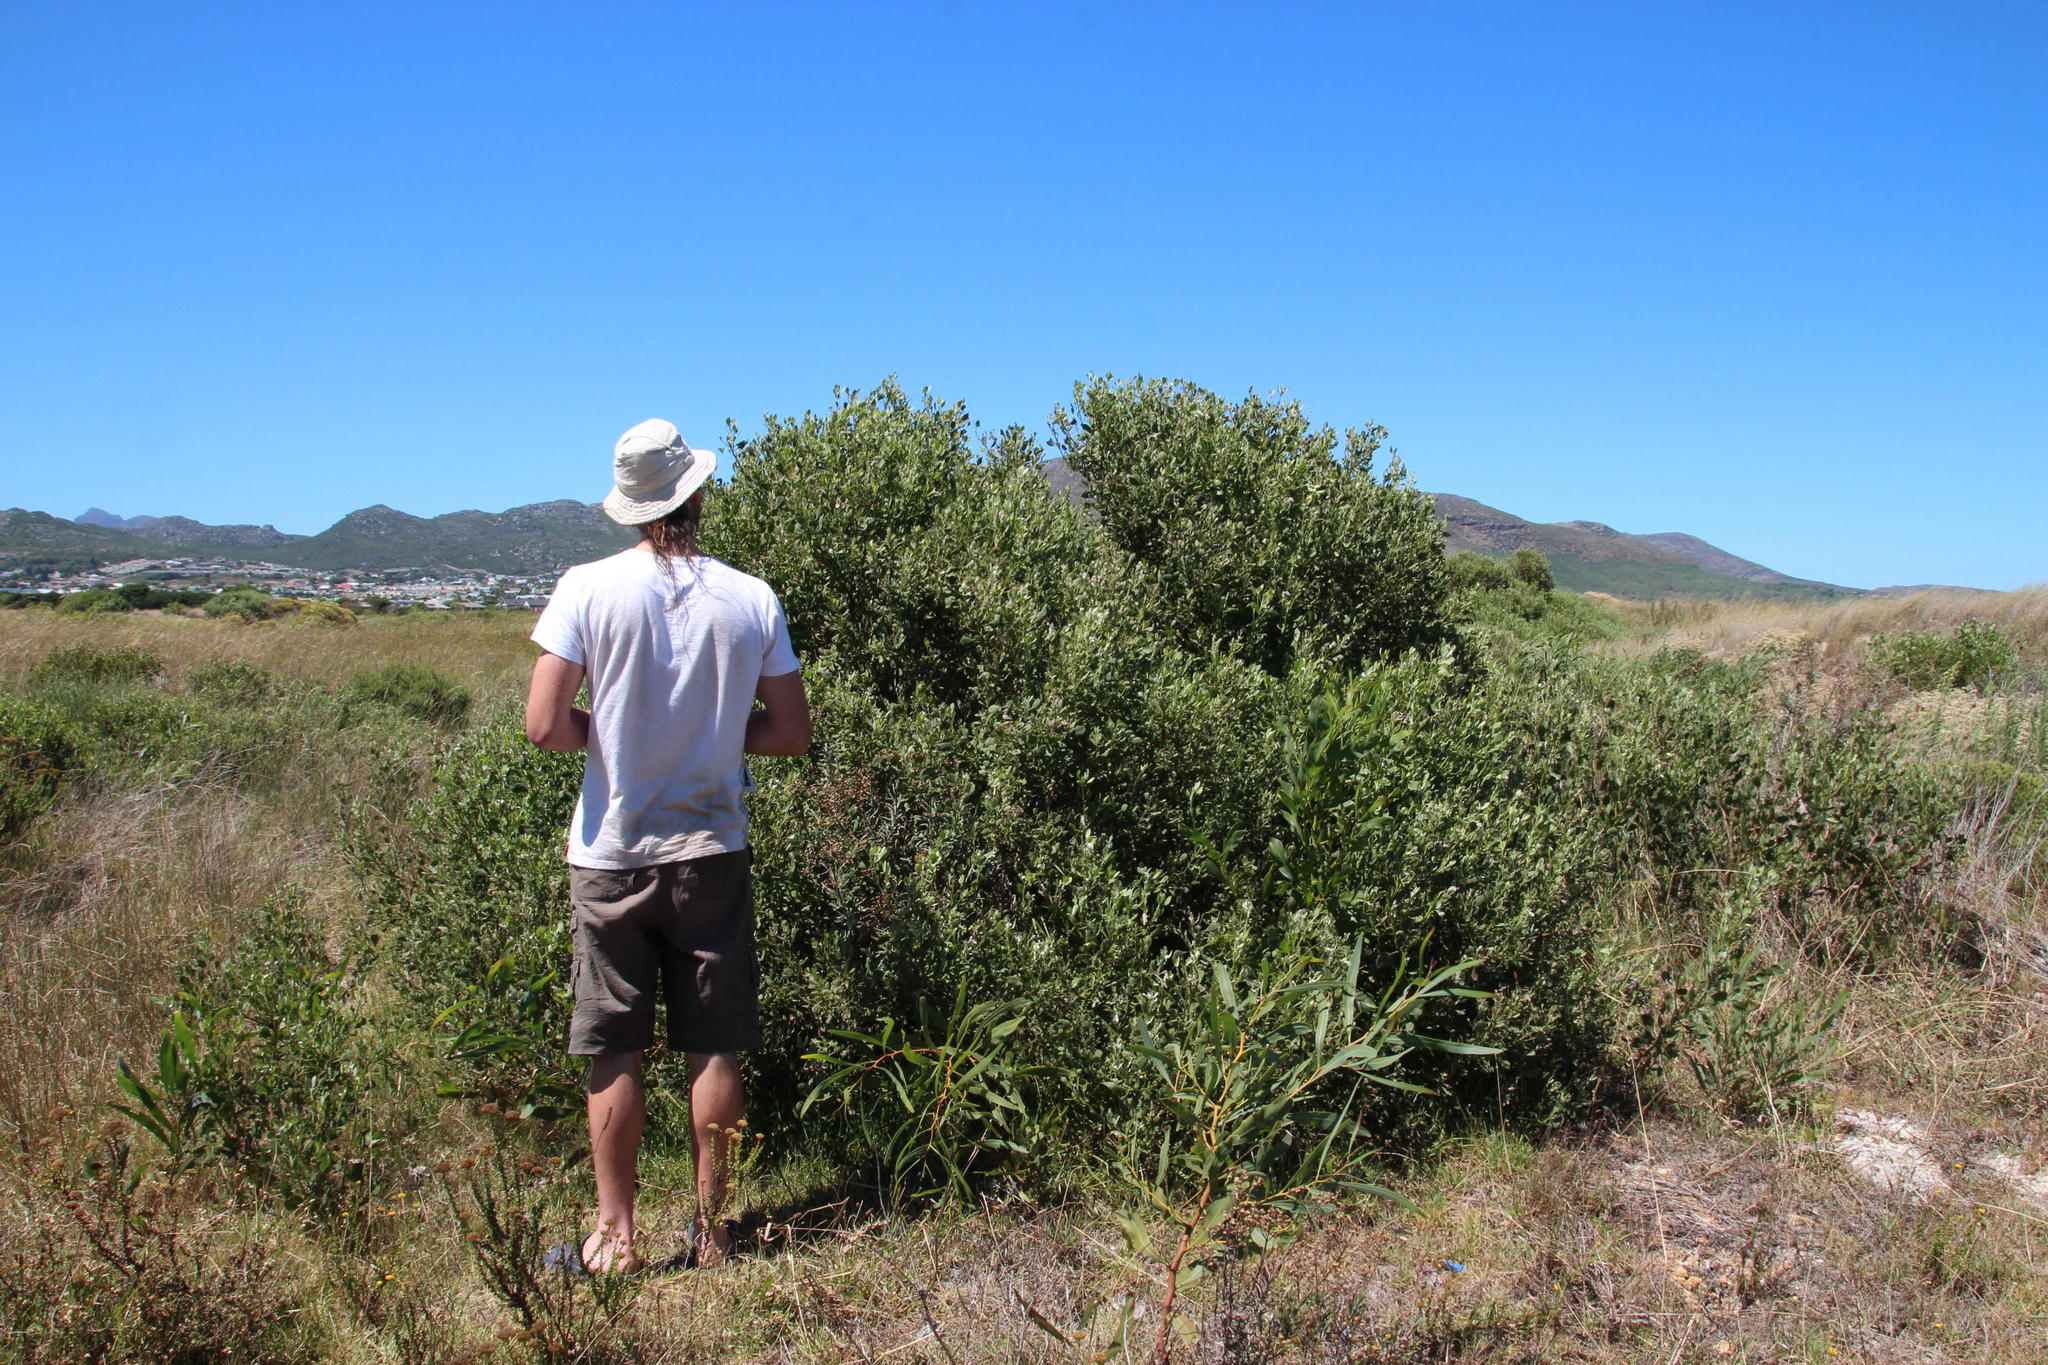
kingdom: Plantae
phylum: Tracheophyta
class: Magnoliopsida
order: Asterales
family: Asteraceae
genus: Osteospermum
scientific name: Osteospermum moniliferum
